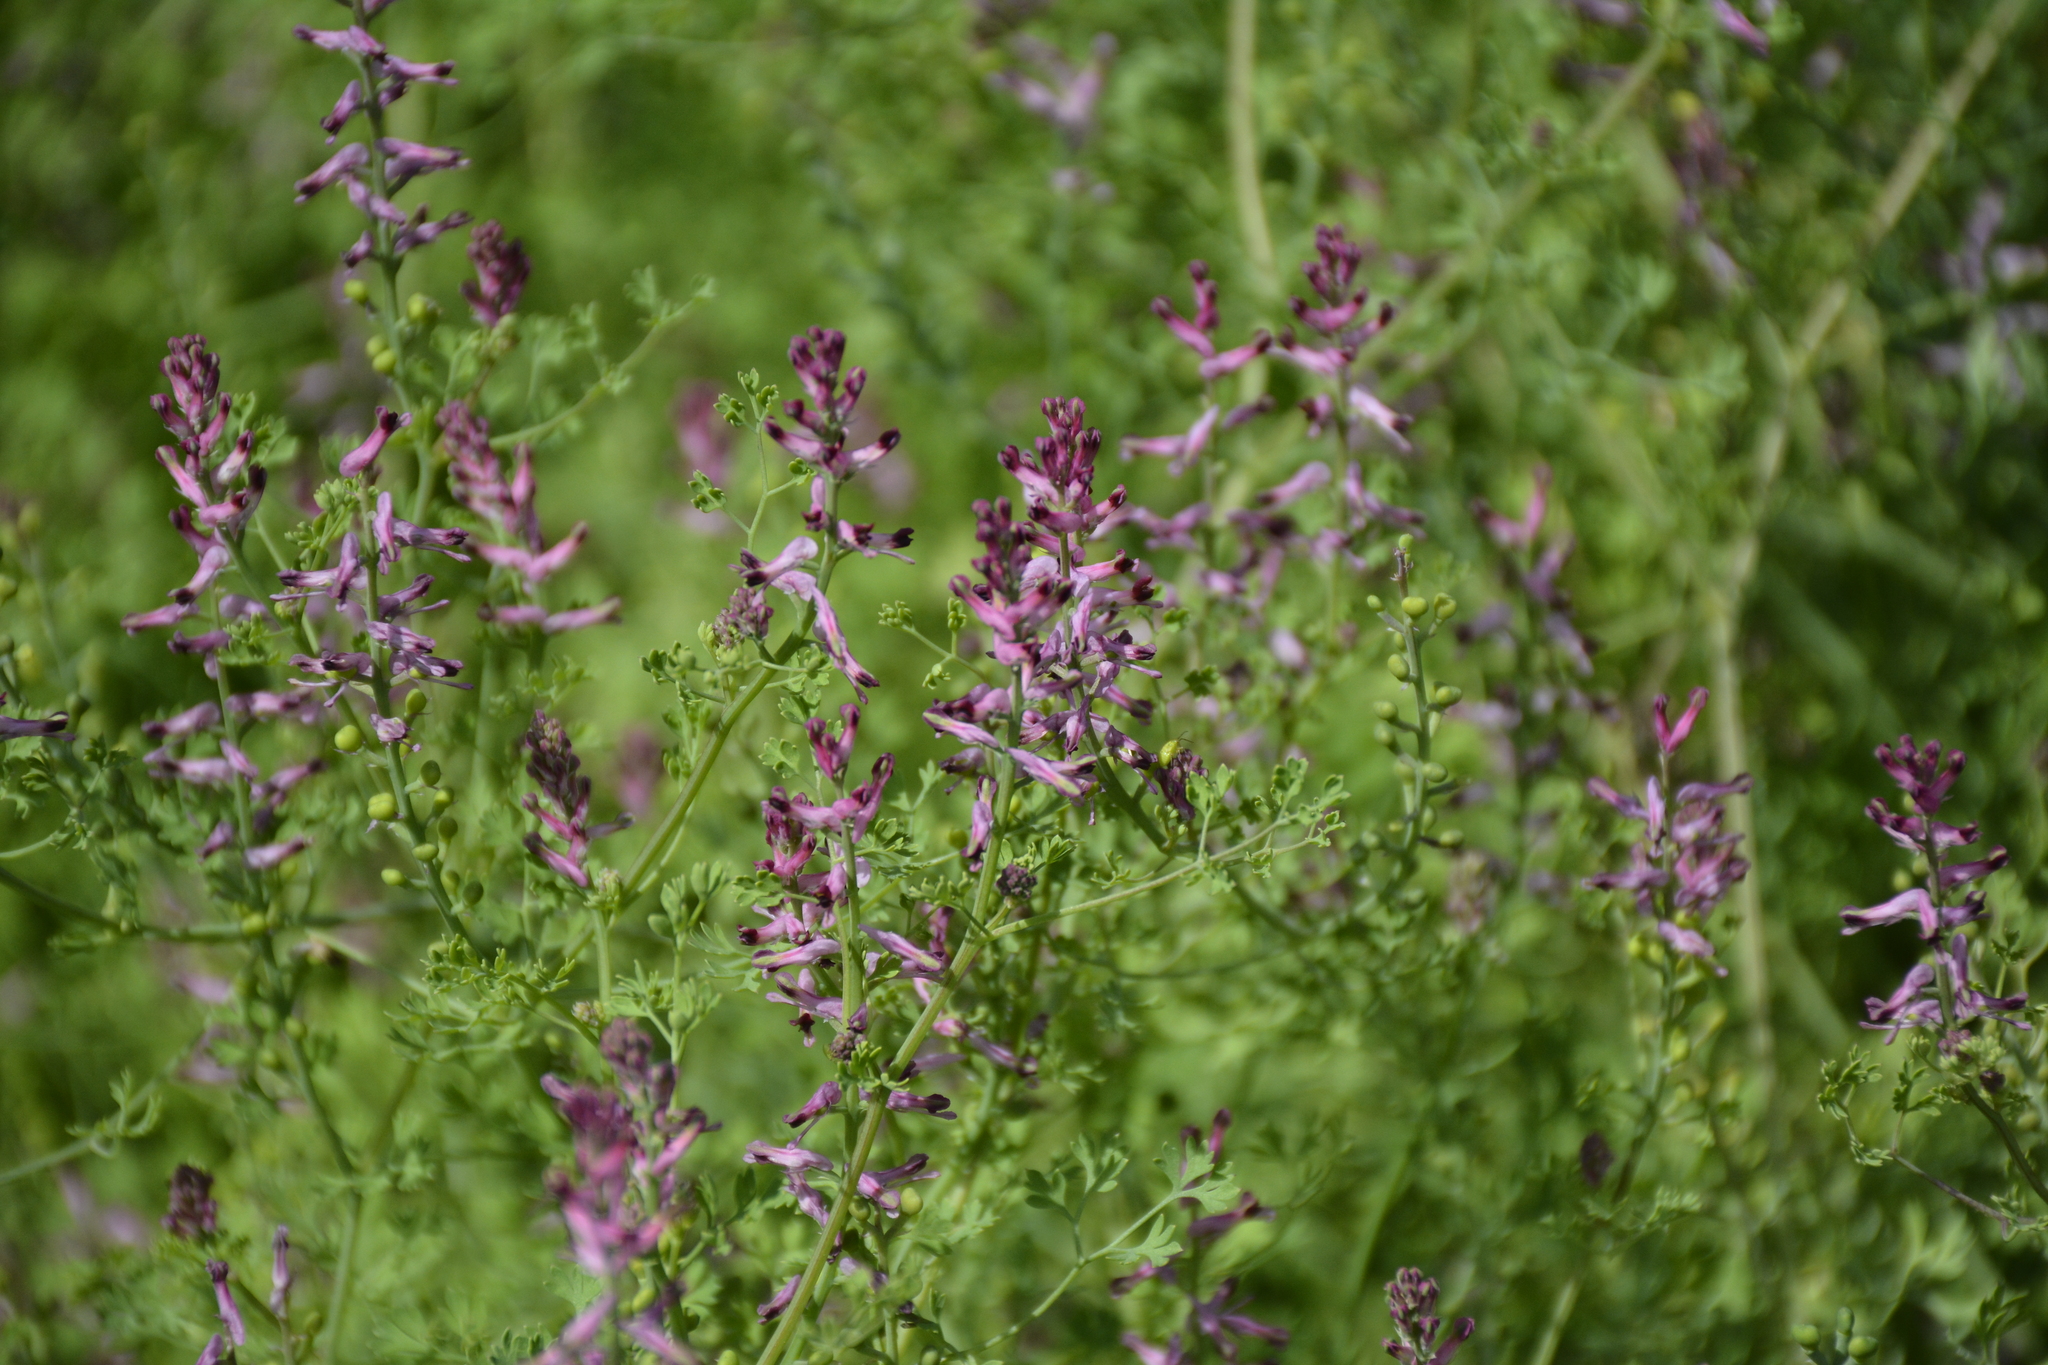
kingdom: Plantae
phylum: Tracheophyta
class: Magnoliopsida
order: Ranunculales
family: Papaveraceae
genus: Fumaria
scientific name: Fumaria officinalis
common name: Common fumitory
